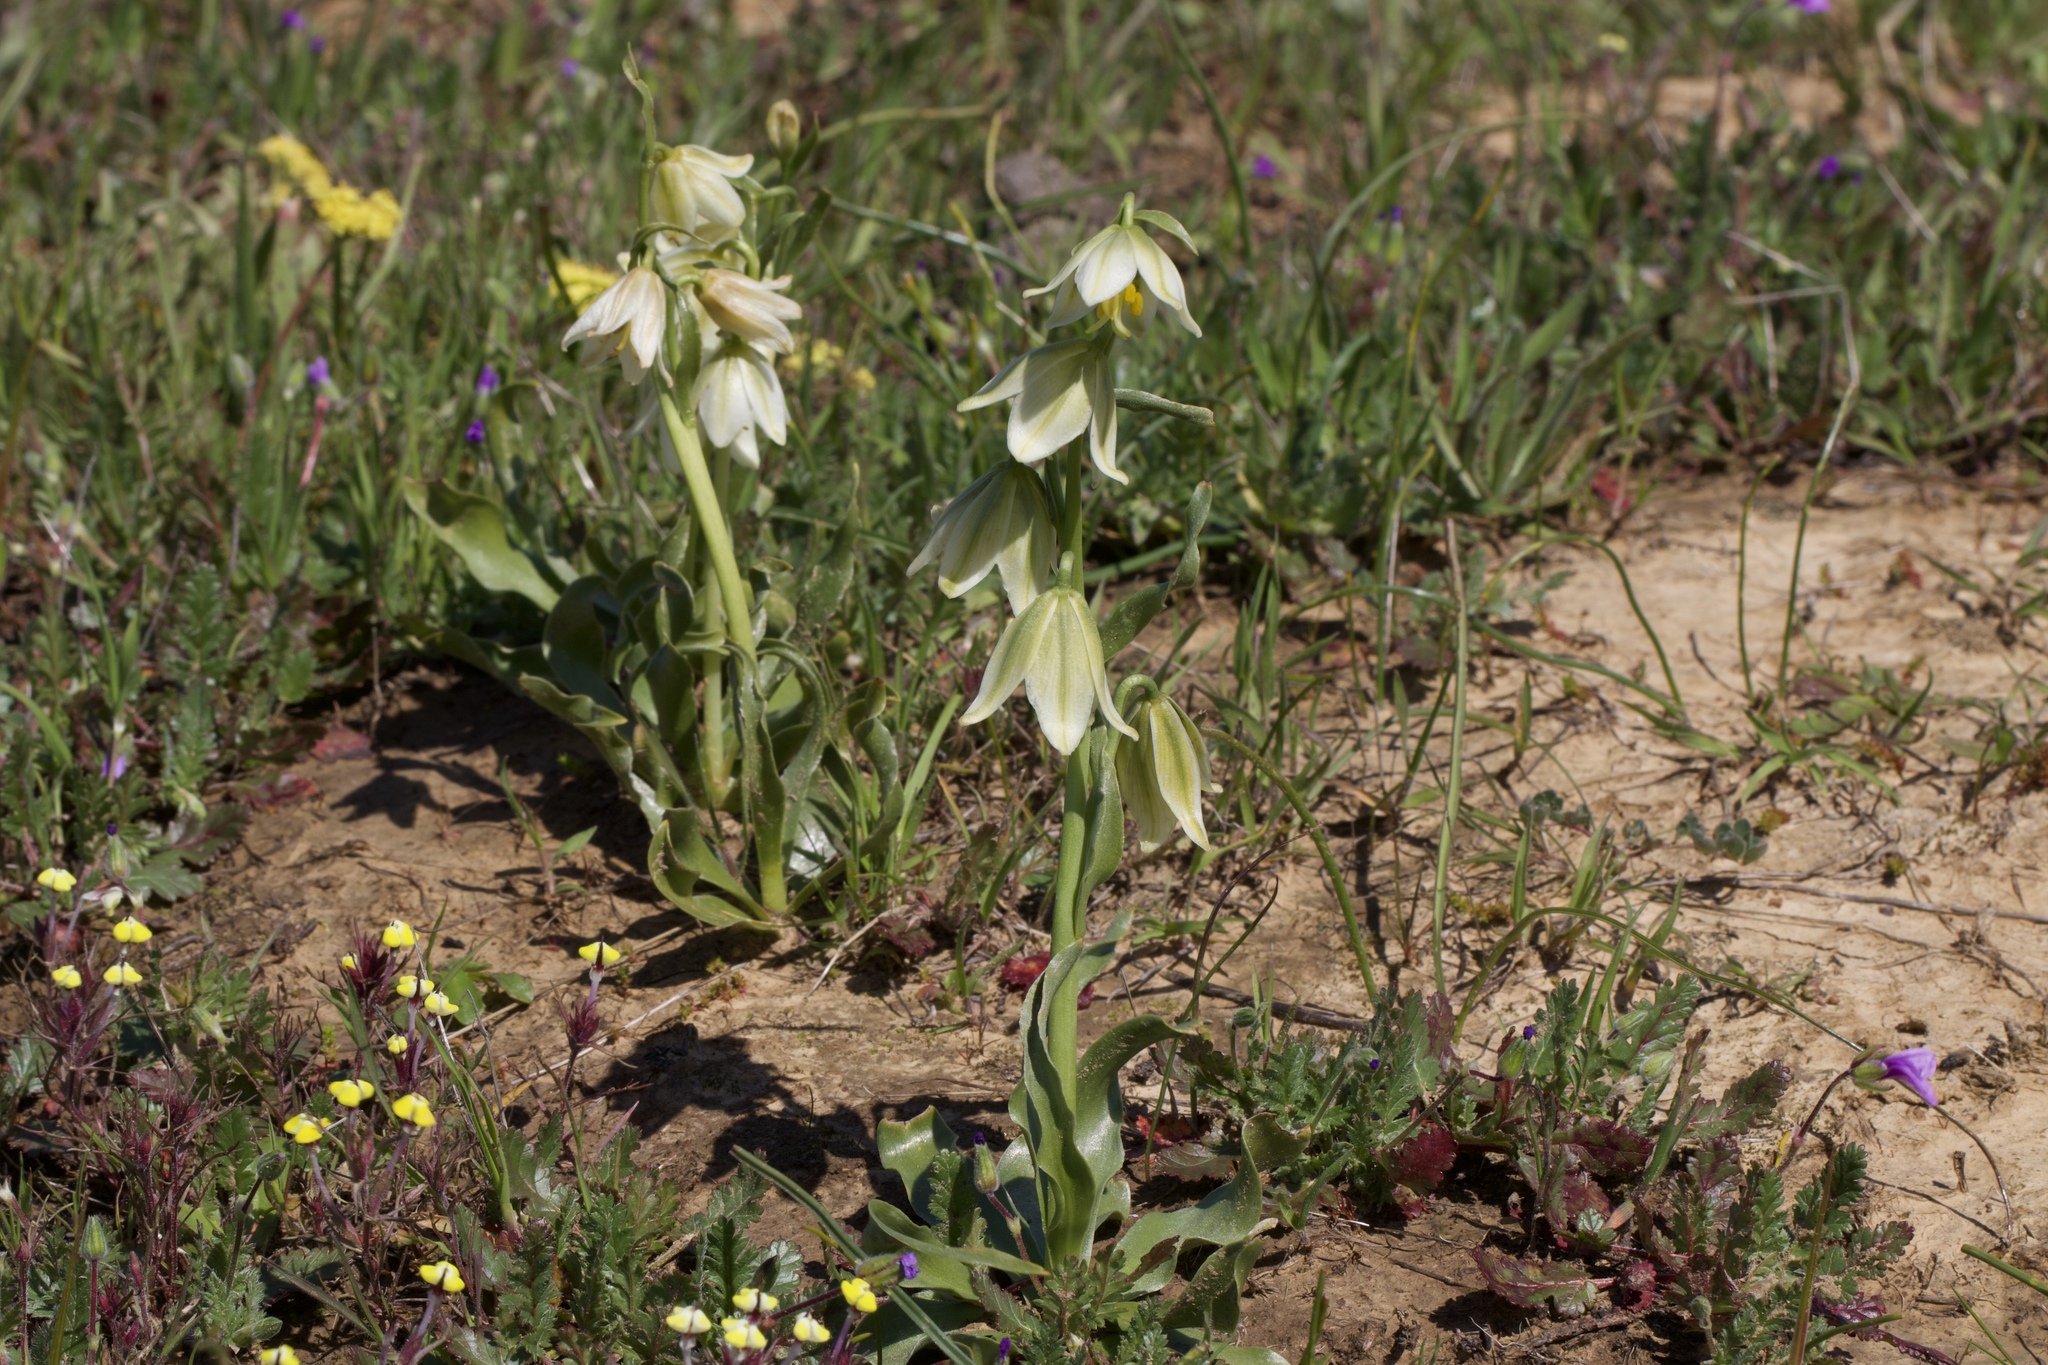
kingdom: Plantae
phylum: Tracheophyta
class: Liliopsida
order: Liliales
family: Liliaceae
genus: Fritillaria
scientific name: Fritillaria liliacea
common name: Fragrant fritillary
